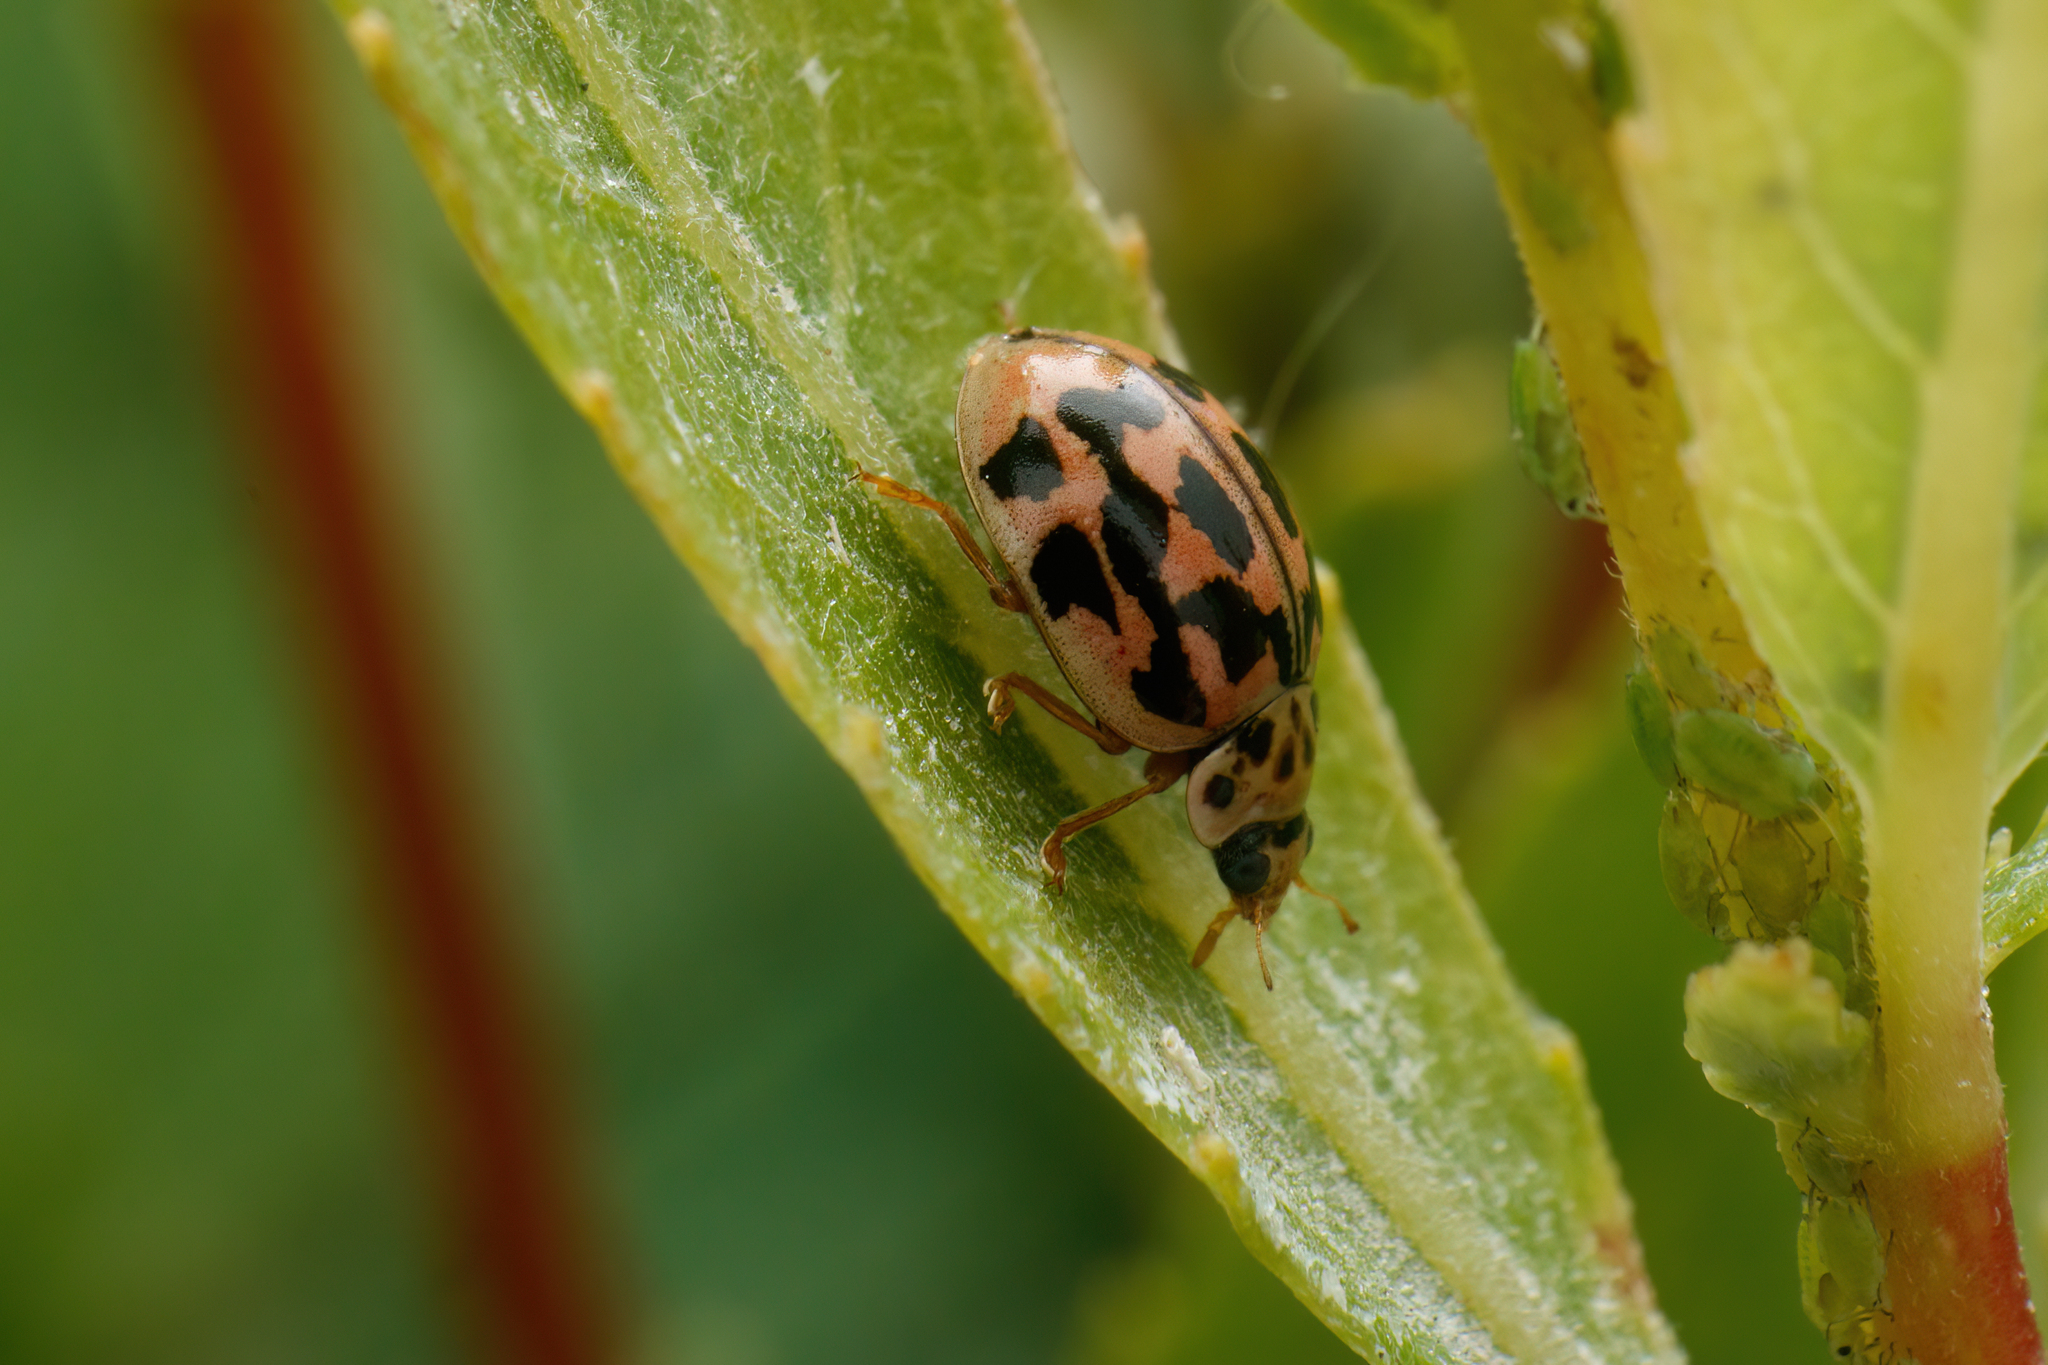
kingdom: Animalia
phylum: Arthropoda
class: Insecta
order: Coleoptera
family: Coccinellidae
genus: Oenopia
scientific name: Oenopia conglobata
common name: Ladybird beetle
